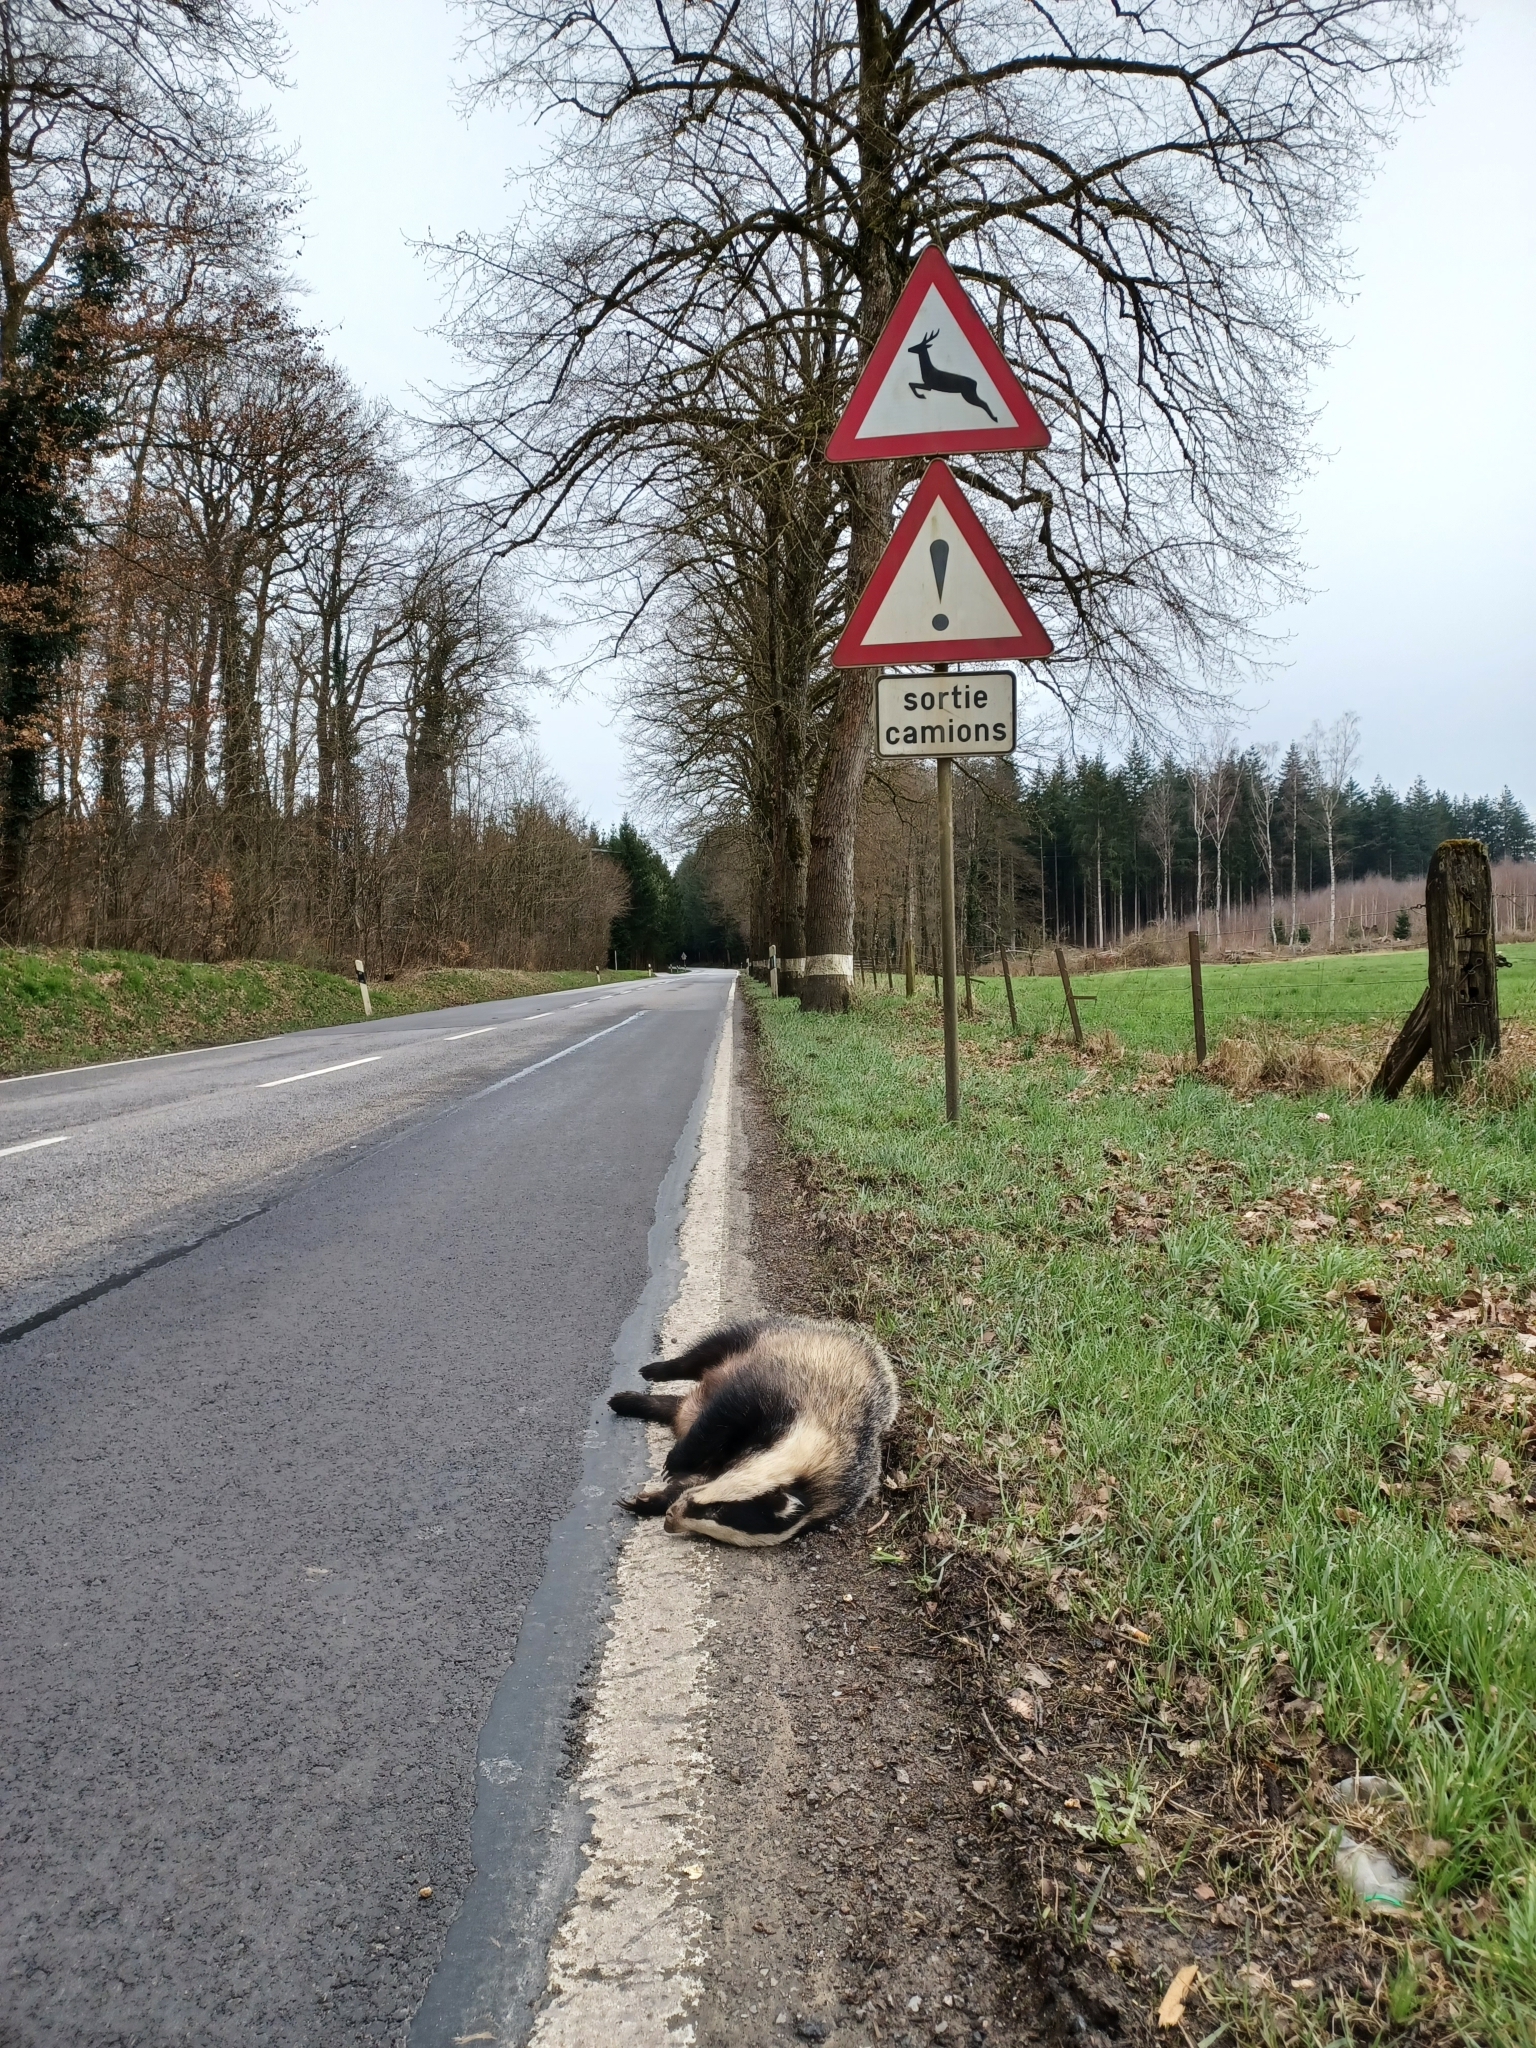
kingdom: Animalia
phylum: Chordata
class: Mammalia
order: Carnivora
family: Mustelidae
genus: Meles
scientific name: Meles meles
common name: Eurasian badger
